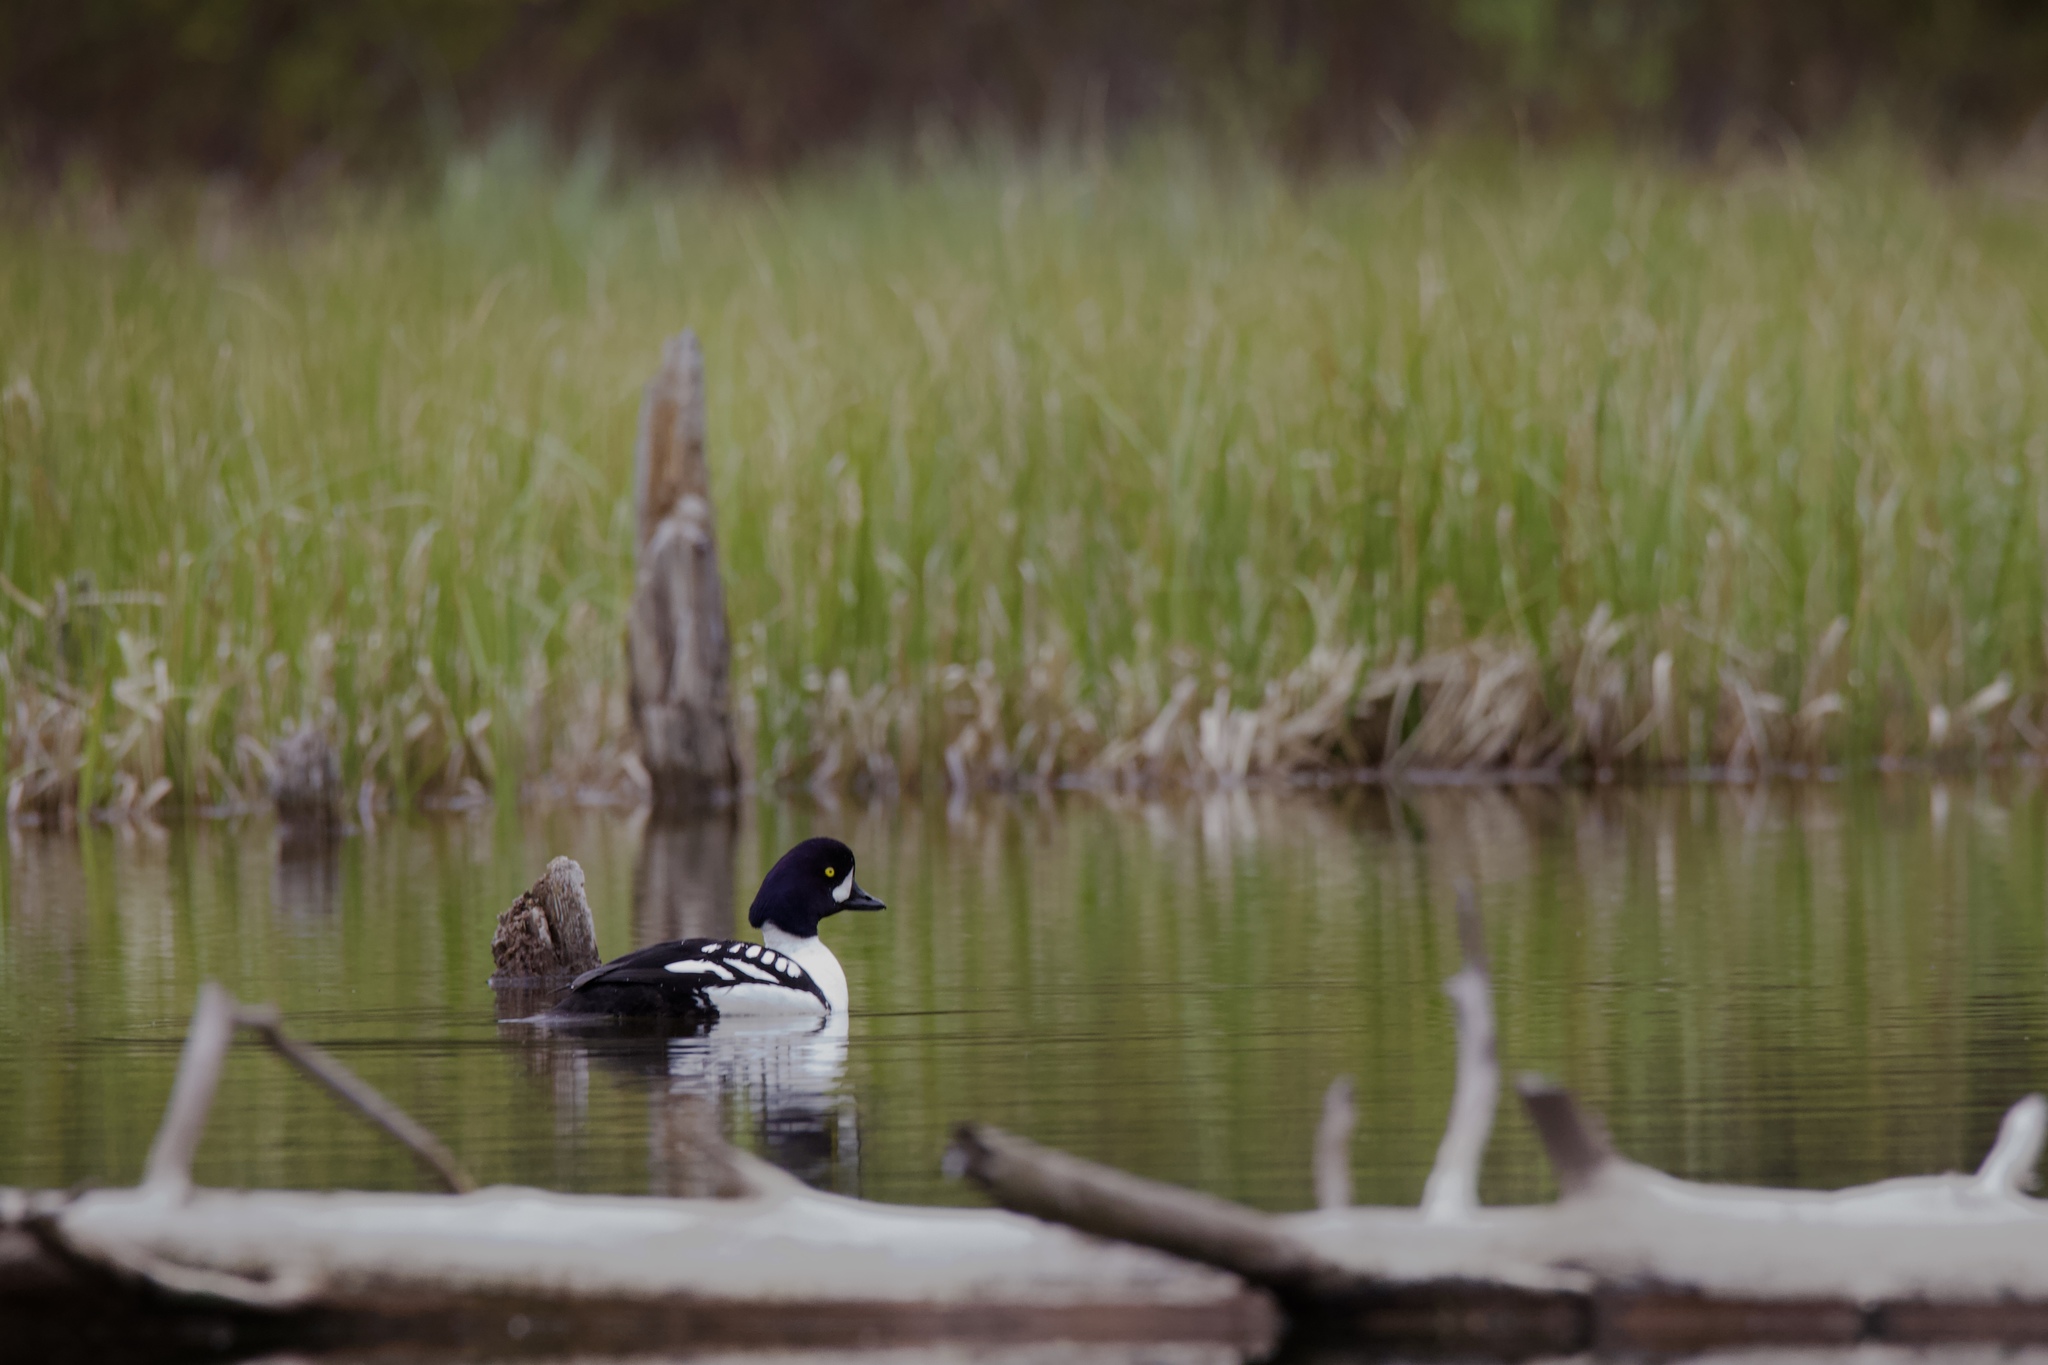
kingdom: Animalia
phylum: Chordata
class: Aves
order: Anseriformes
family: Anatidae
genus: Bucephala
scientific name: Bucephala islandica
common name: Barrow's goldeneye
